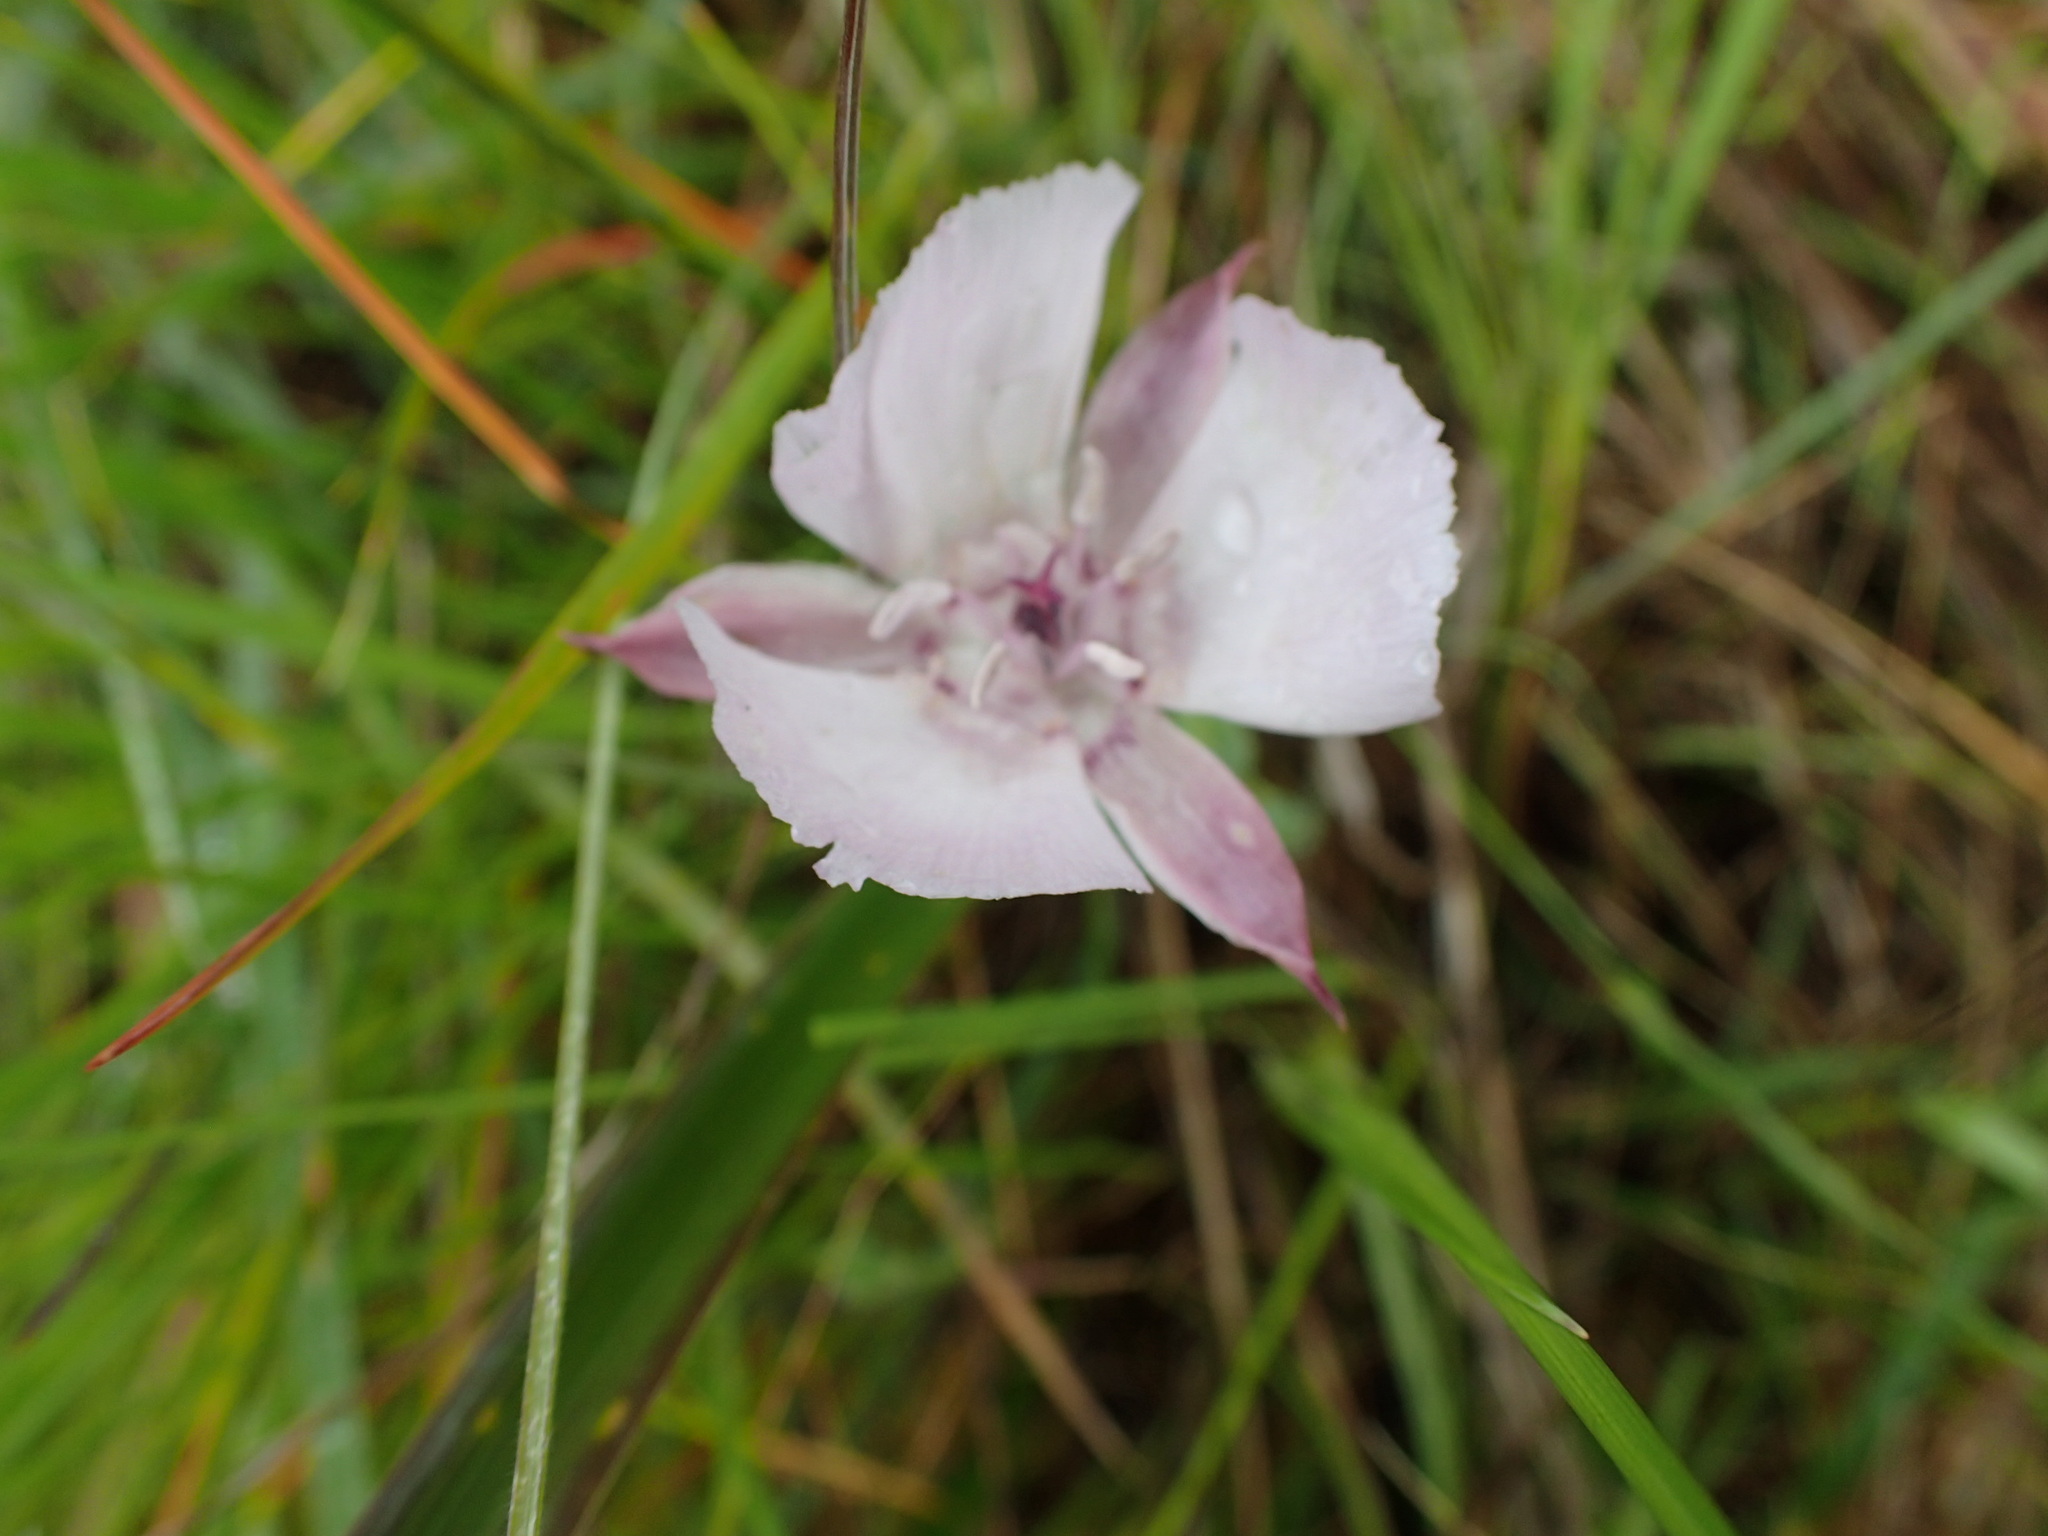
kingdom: Plantae
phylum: Tracheophyta
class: Liliopsida
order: Liliales
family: Liliaceae
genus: Calochortus
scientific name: Calochortus umbellatus
